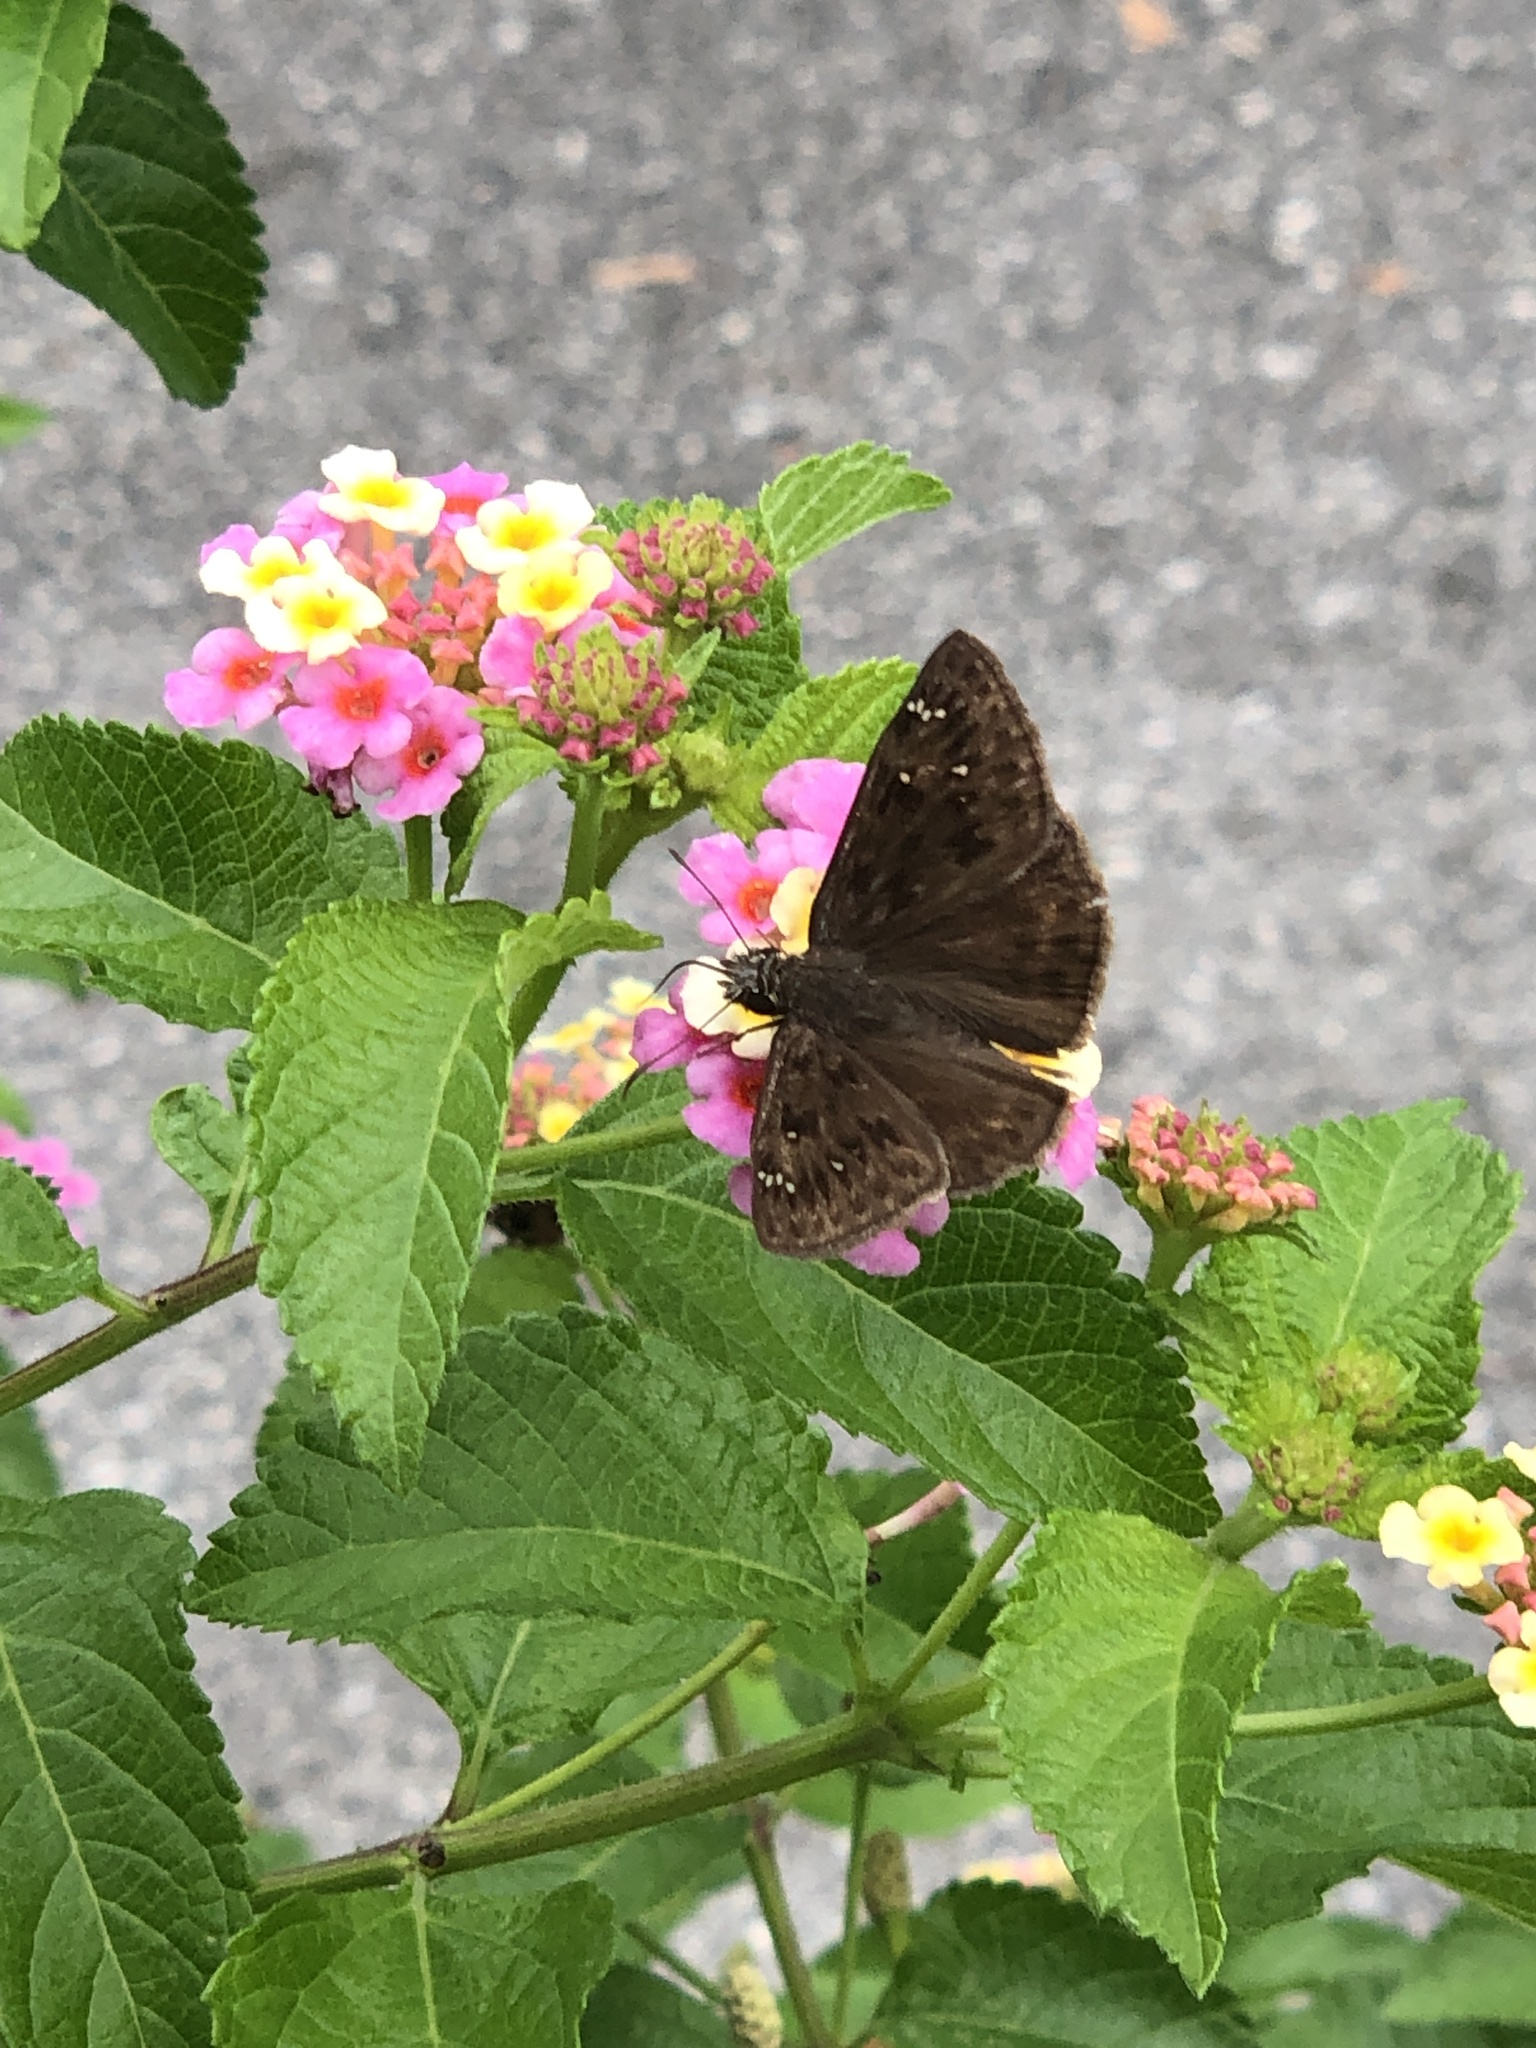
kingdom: Animalia
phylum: Arthropoda
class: Insecta
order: Lepidoptera
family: Hesperiidae
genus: Erynnis
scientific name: Erynnis horatius
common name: Horace's duskywing
